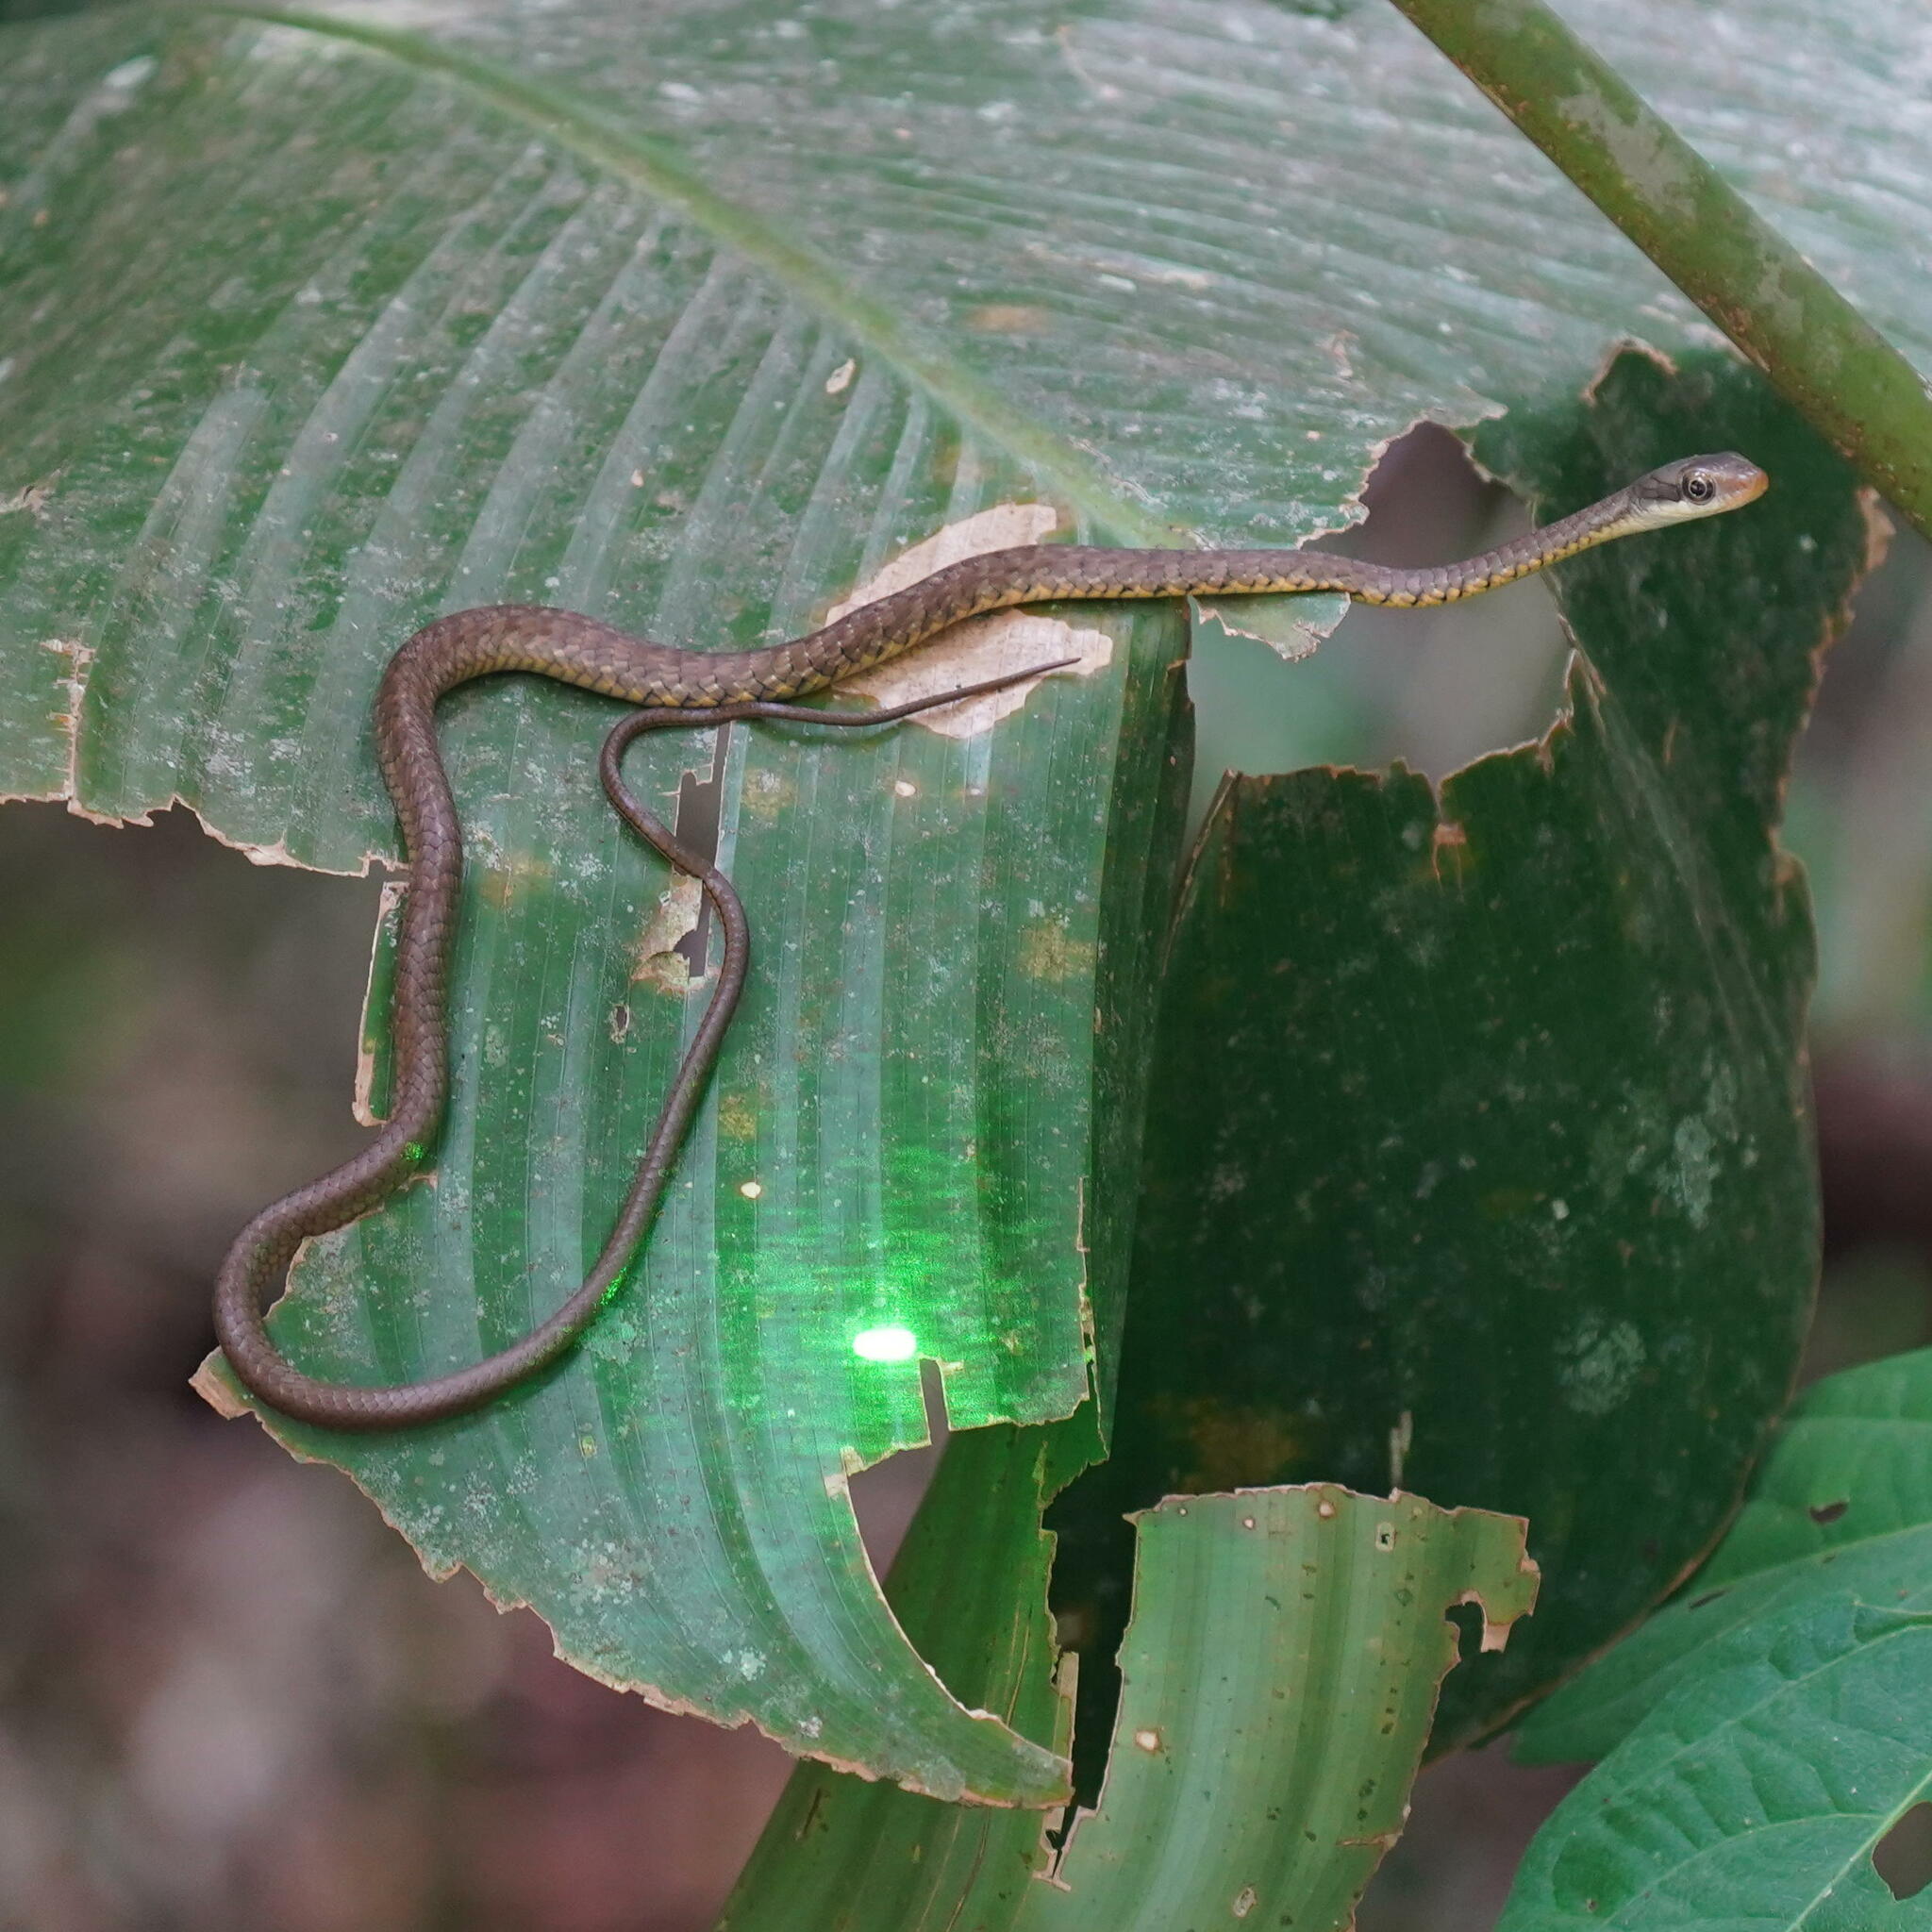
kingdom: Animalia
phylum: Chordata
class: Squamata
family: Colubridae
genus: Dendrophidion
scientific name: Dendrophidion percarinatum
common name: South american forest racer
